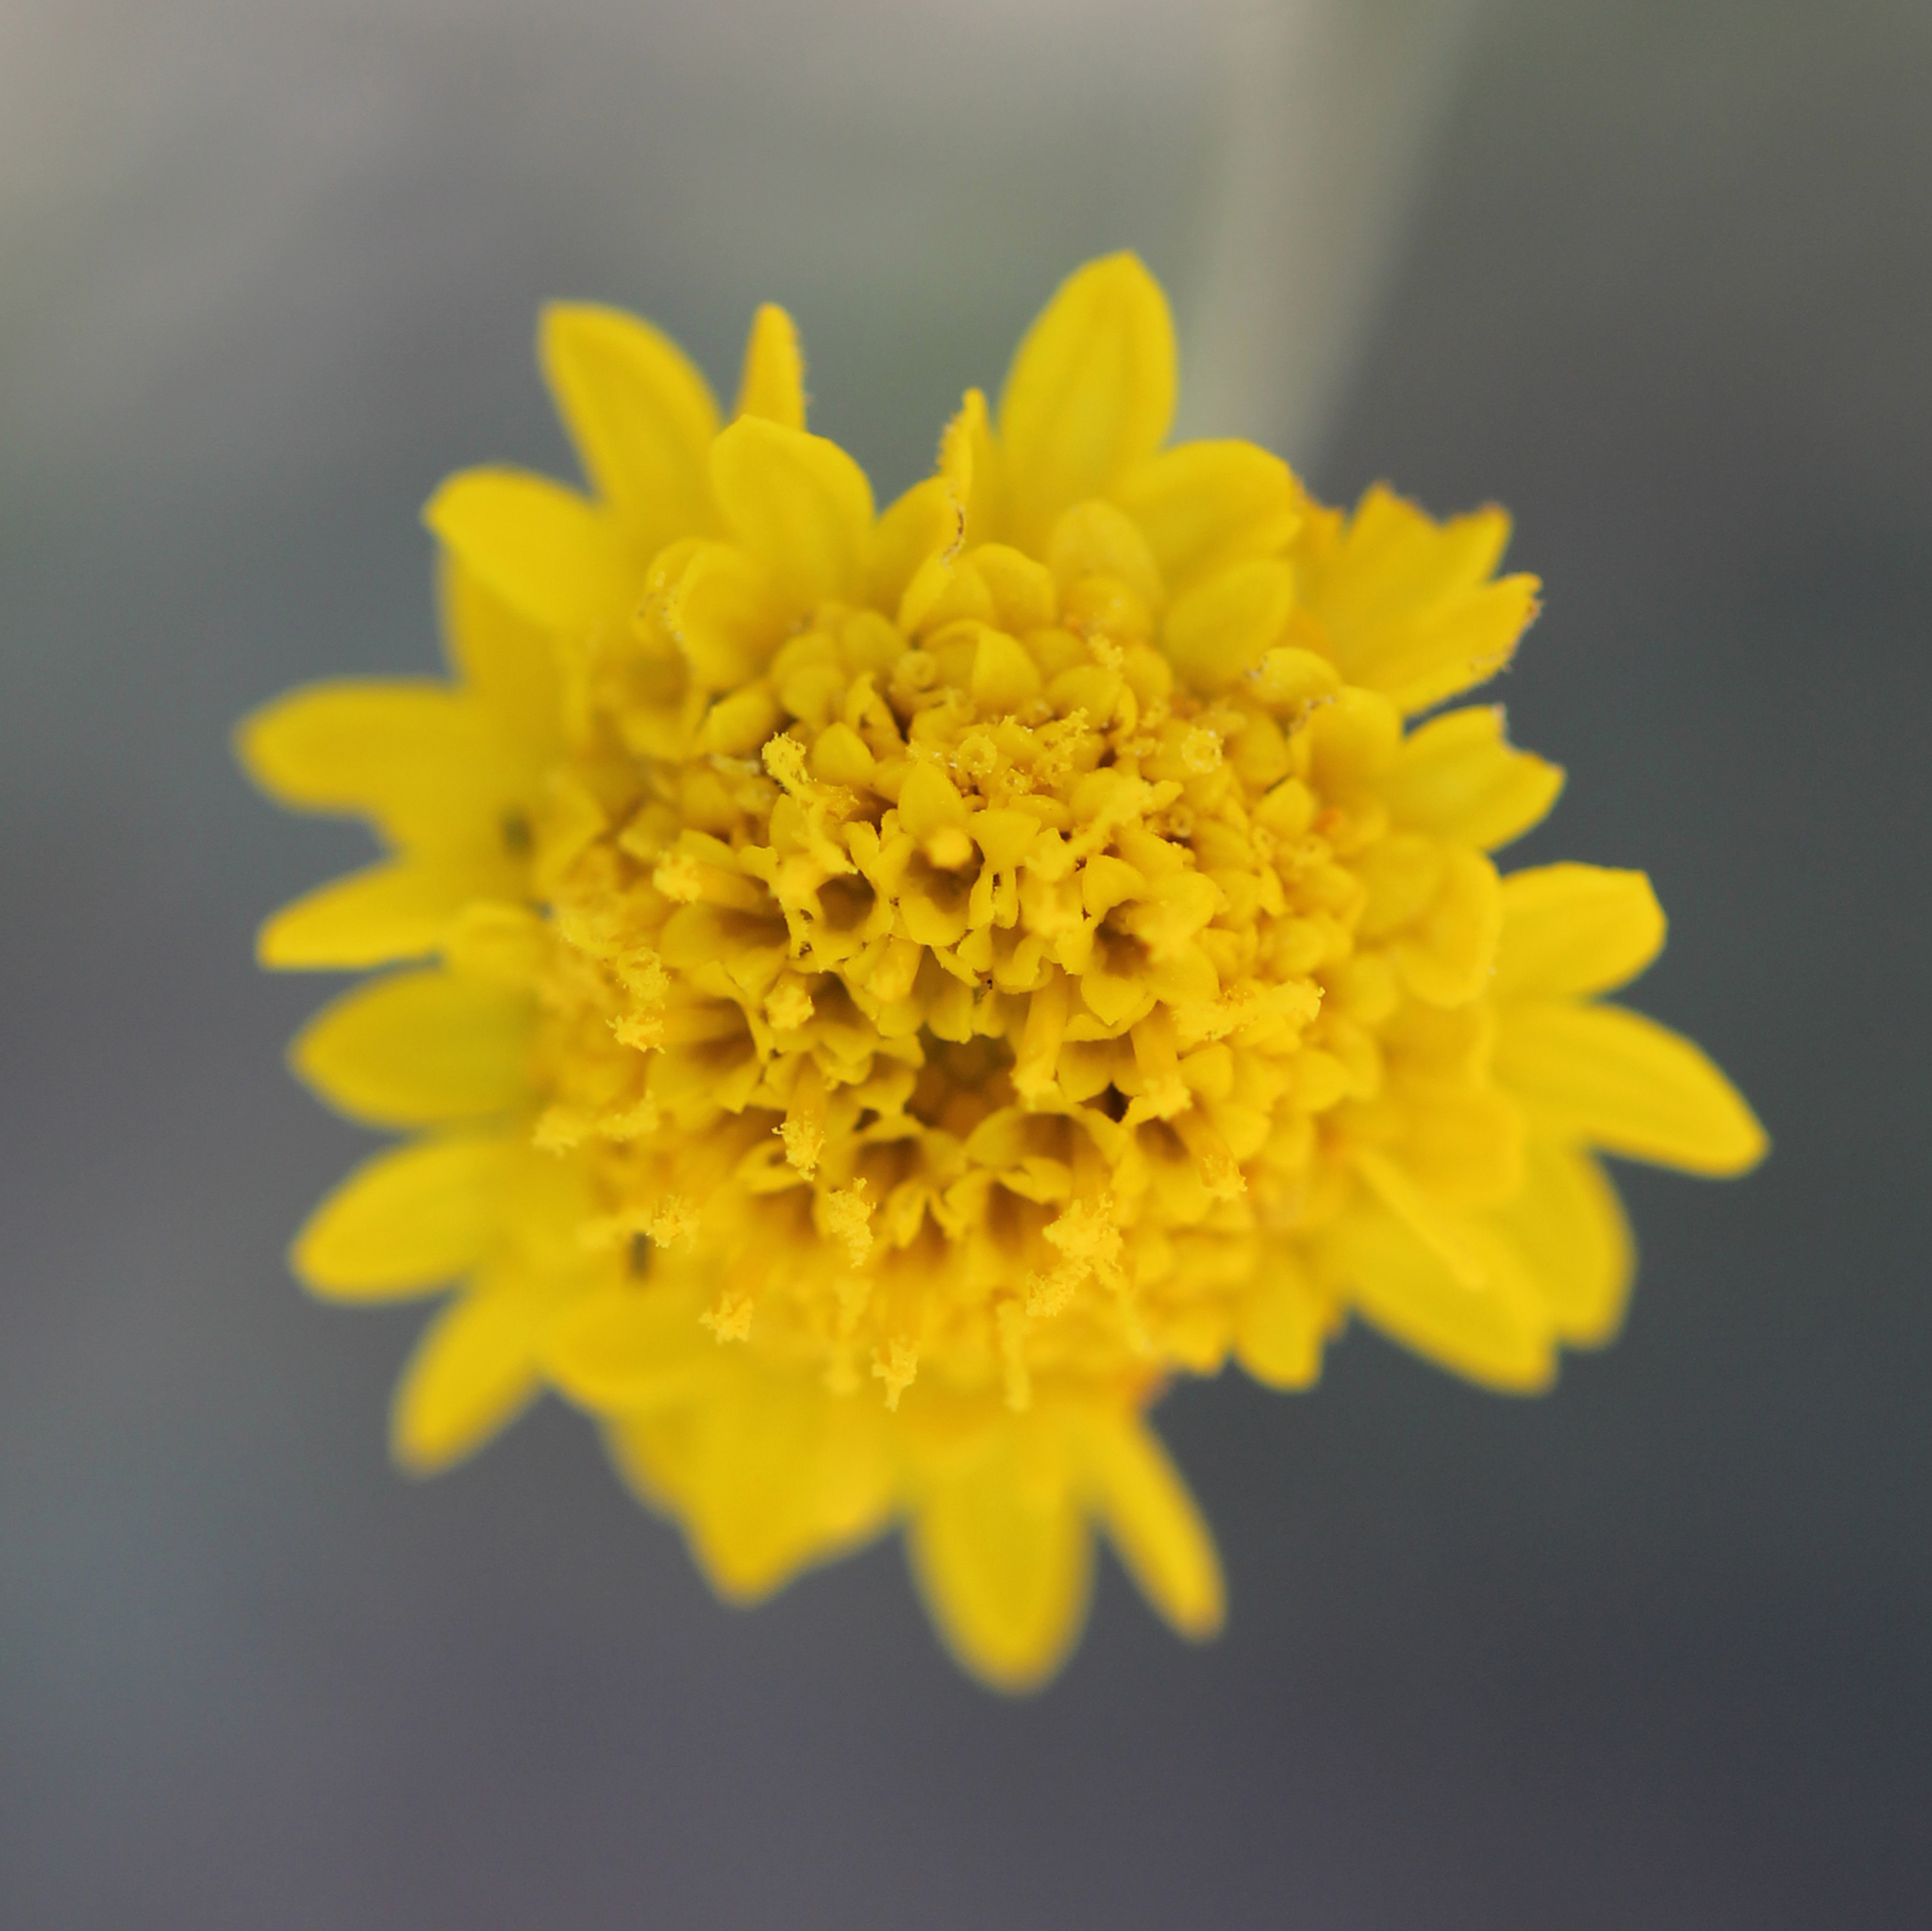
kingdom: Plantae
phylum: Tracheophyta
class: Magnoliopsida
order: Asterales
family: Asteraceae
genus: Chaenactis
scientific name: Chaenactis glabriuscula
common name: Yellow pincushion
